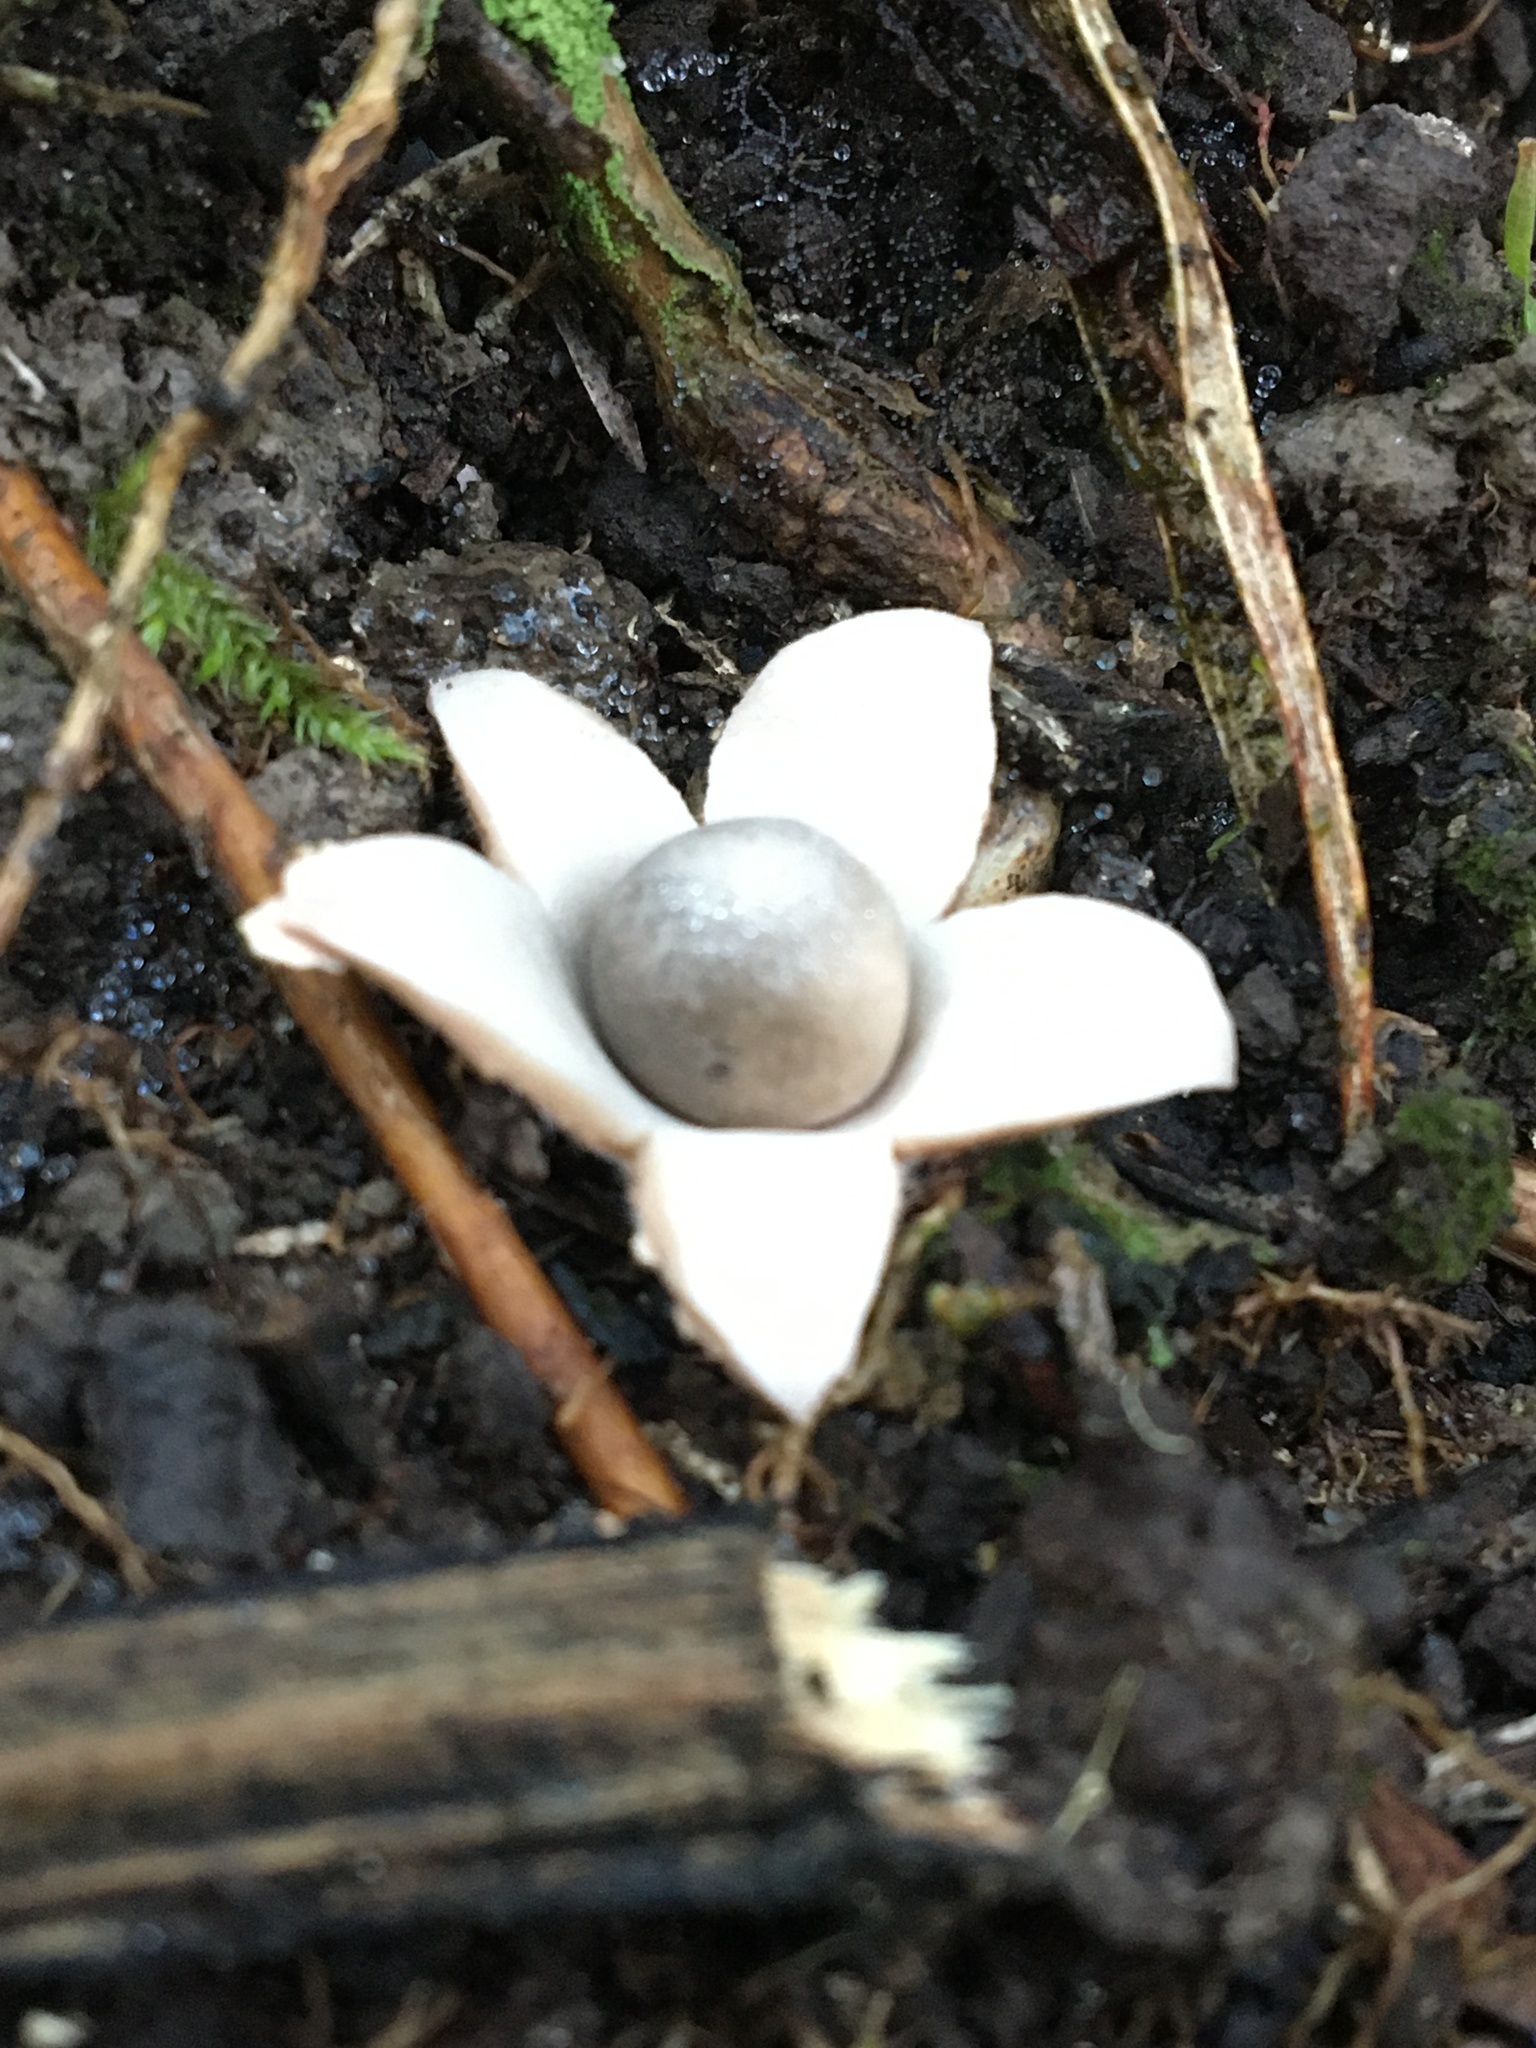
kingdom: Fungi
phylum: Basidiomycota
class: Agaricomycetes
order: Geastrales
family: Geastraceae
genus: Geastrum
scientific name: Geastrum triplex
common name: Collared earthstar
